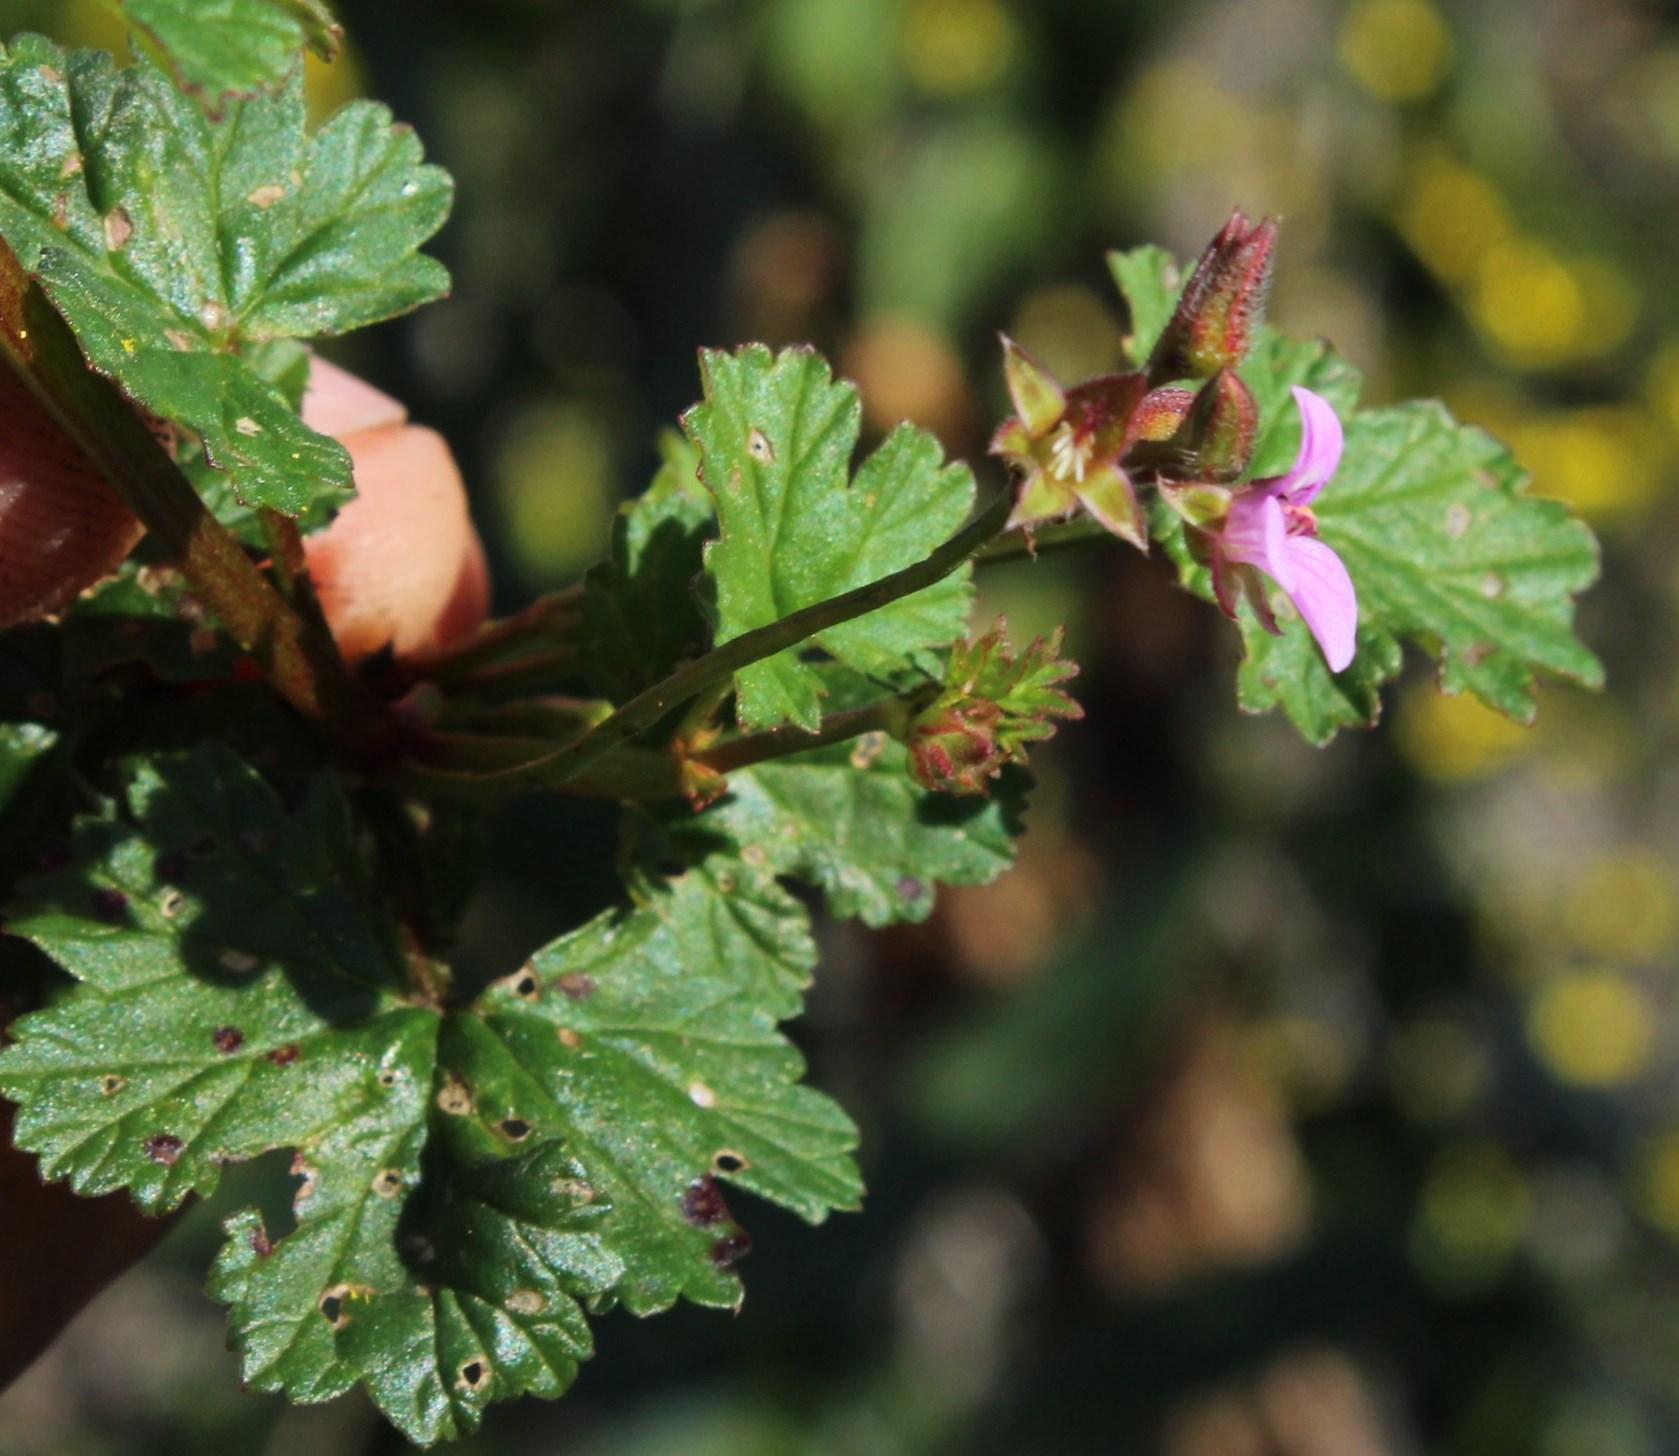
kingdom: Plantae
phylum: Tracheophyta
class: Magnoliopsida
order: Geraniales
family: Geraniaceae
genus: Pelargonium
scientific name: Pelargonium grossularioides
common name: Gooseberry geranium
